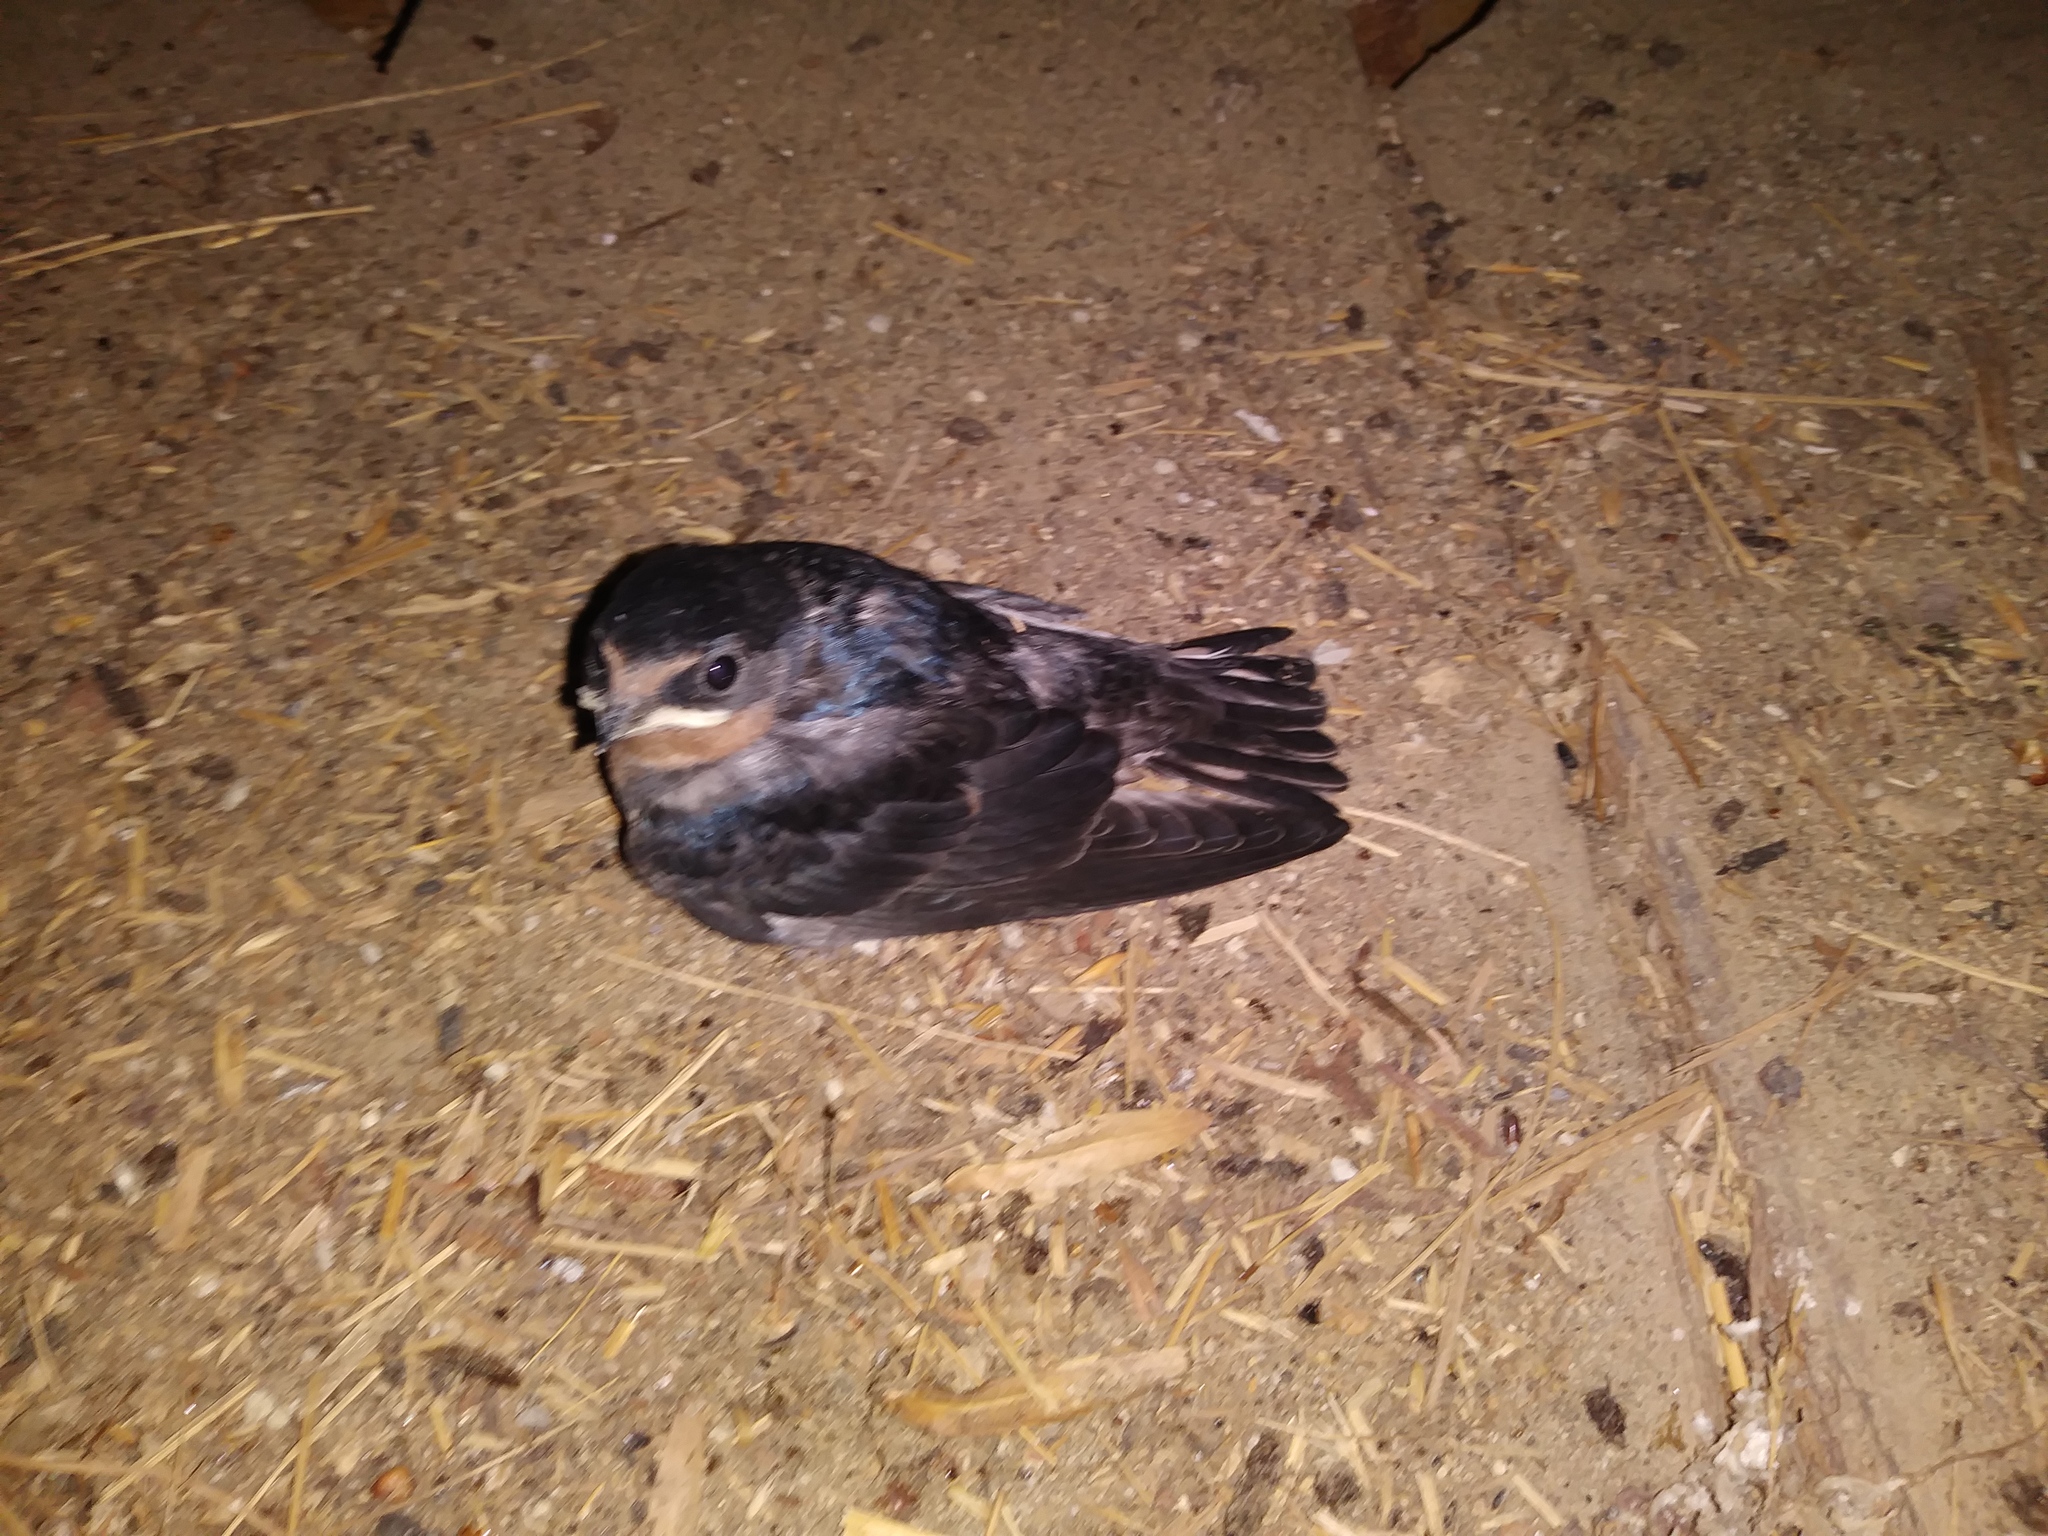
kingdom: Animalia
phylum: Chordata
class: Aves
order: Passeriformes
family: Hirundinidae
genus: Hirundo
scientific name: Hirundo rustica
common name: Barn swallow
